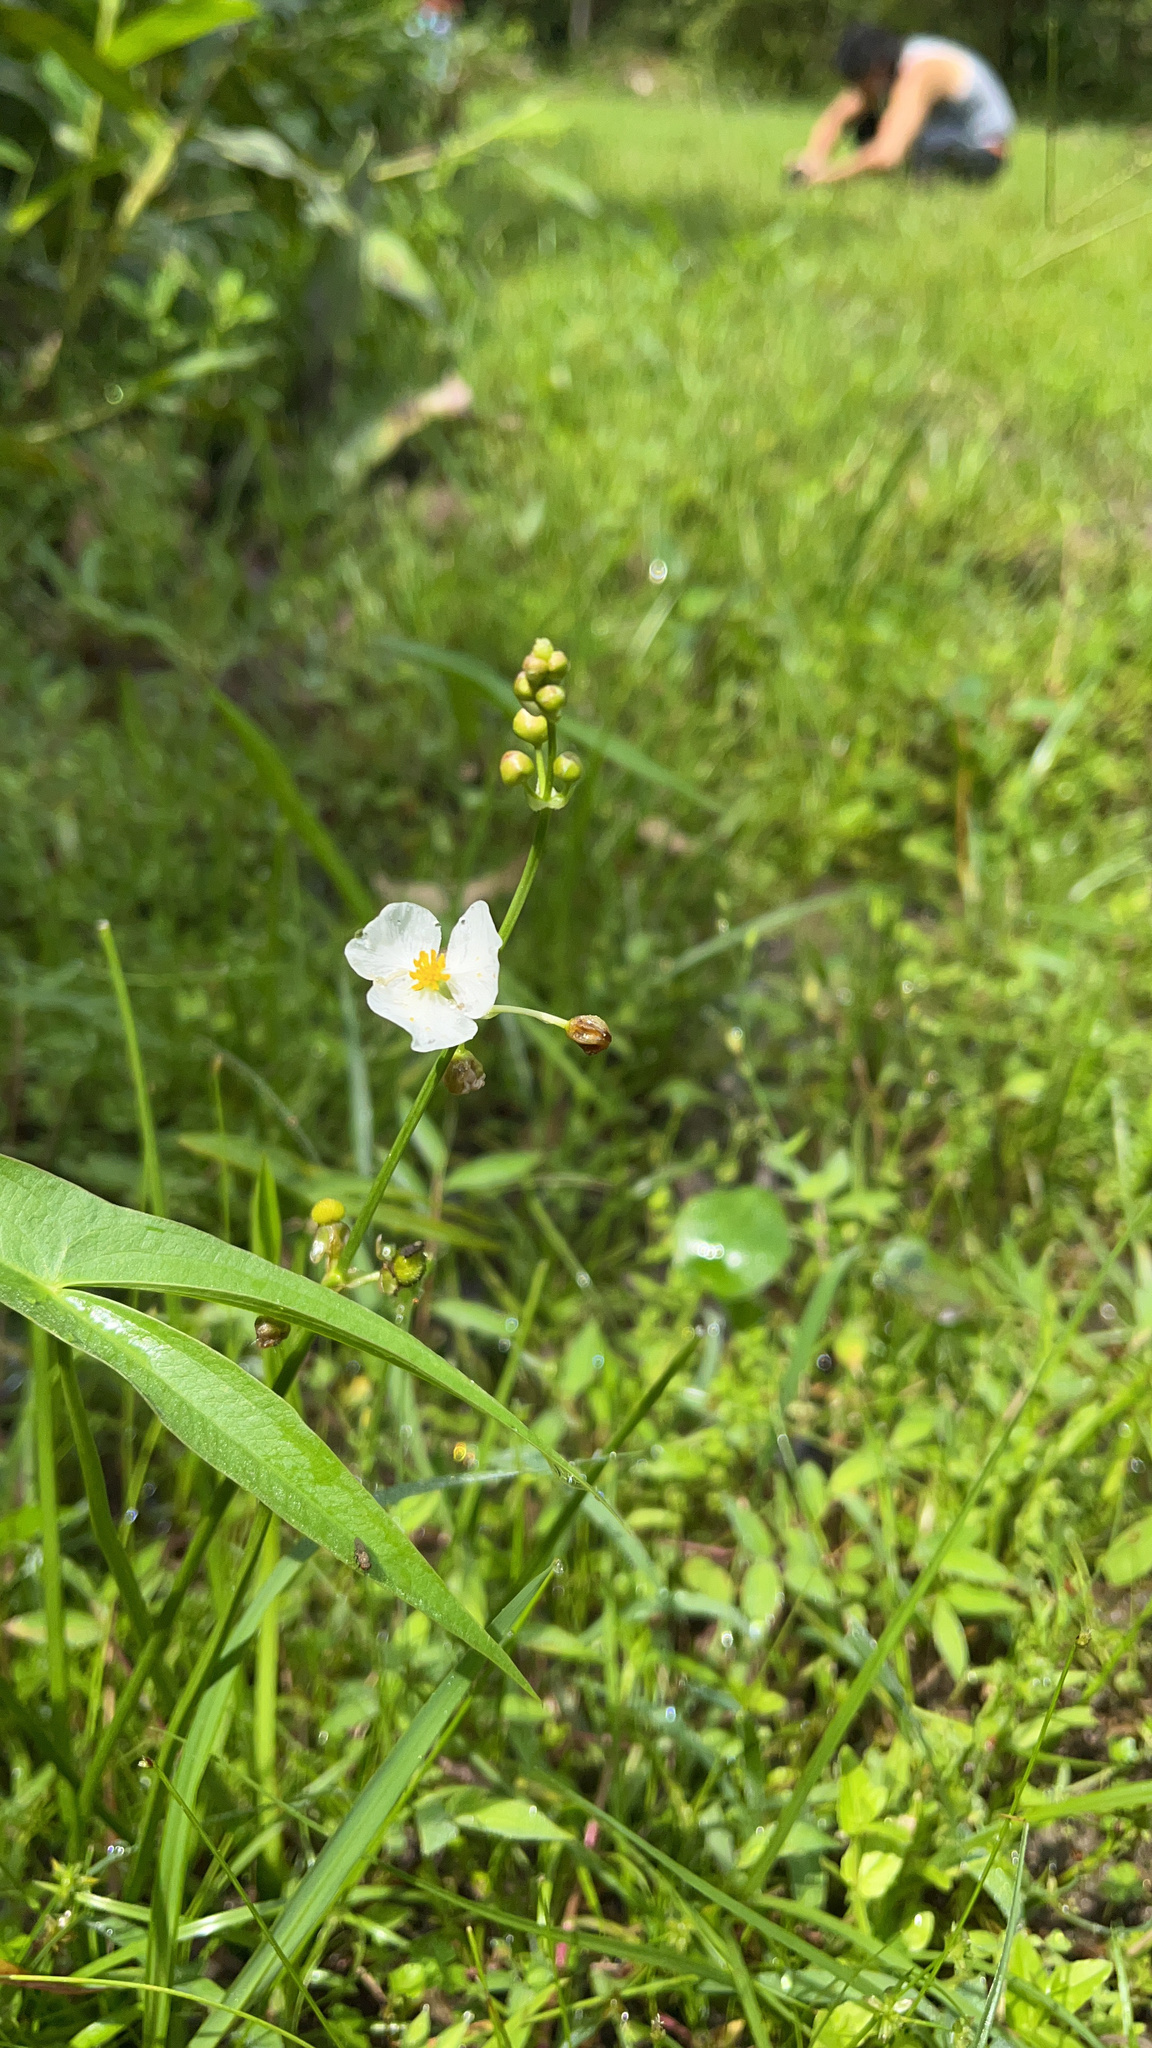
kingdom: Plantae
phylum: Tracheophyta
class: Liliopsida
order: Alismatales
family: Alismataceae
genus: Sagittaria
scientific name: Sagittaria trifolia
